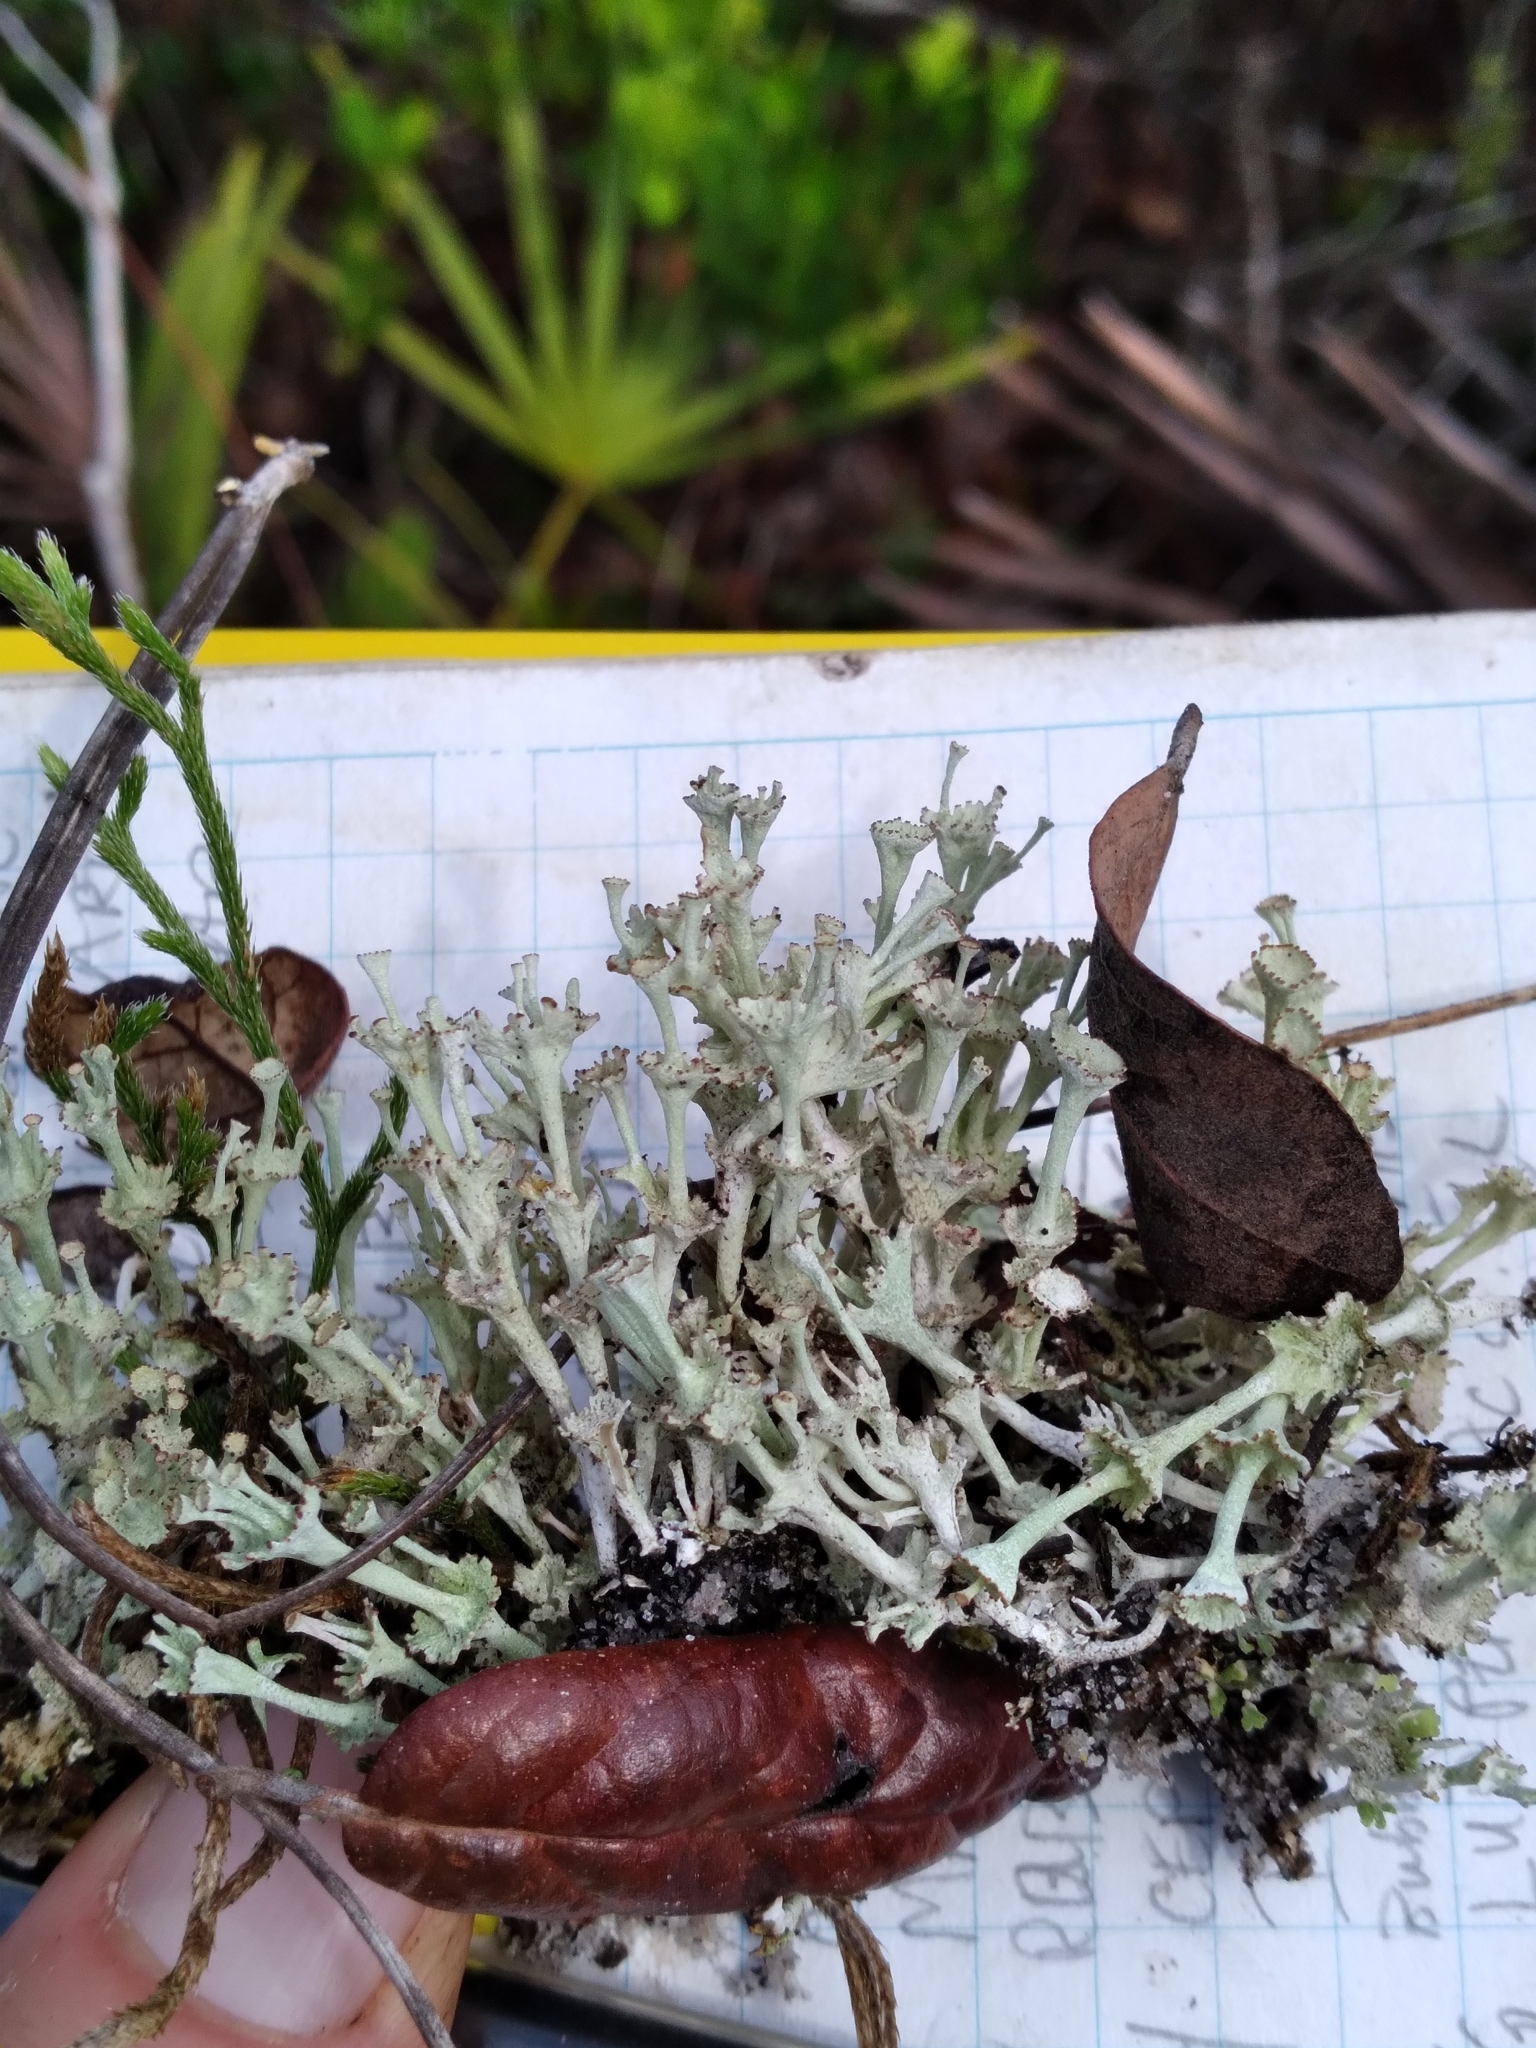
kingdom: Fungi
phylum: Ascomycota
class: Lecanoromycetes
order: Lecanorales
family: Cladoniaceae
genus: Cladonia
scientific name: Cladonia rappii
